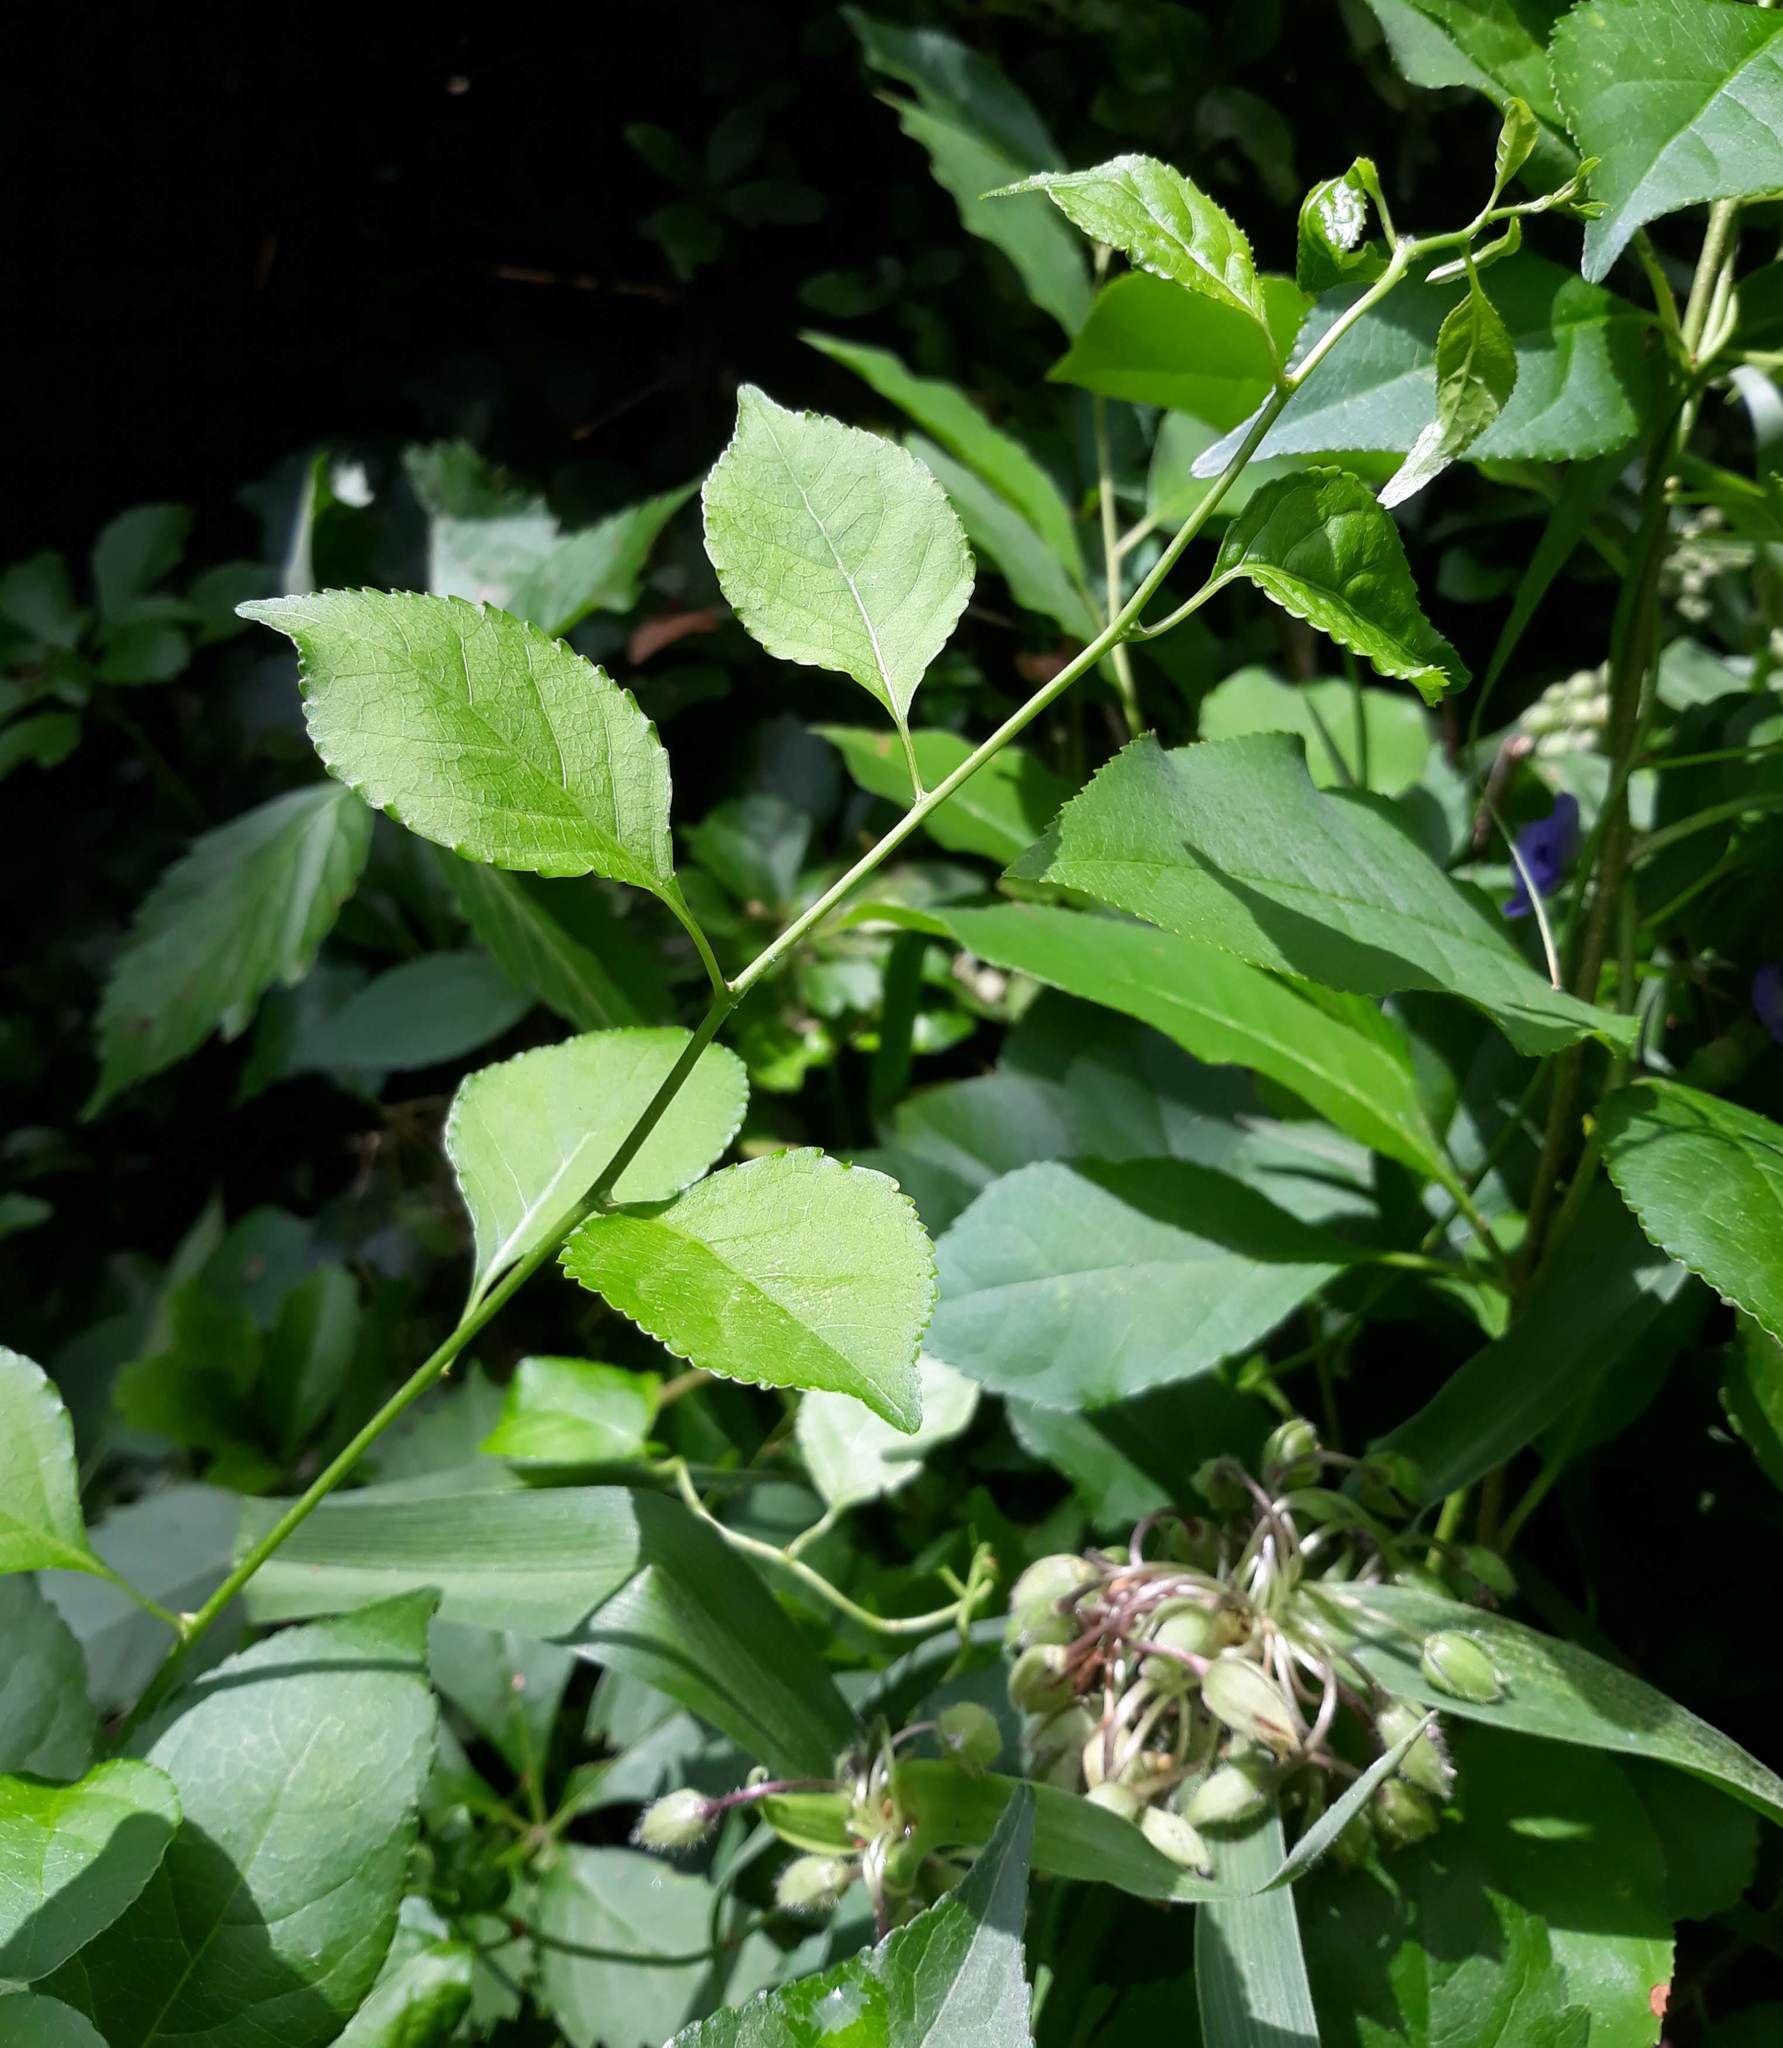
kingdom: Plantae
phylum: Tracheophyta
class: Magnoliopsida
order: Celastrales
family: Celastraceae
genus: Celastrus
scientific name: Celastrus scandens
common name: American bittersweet
